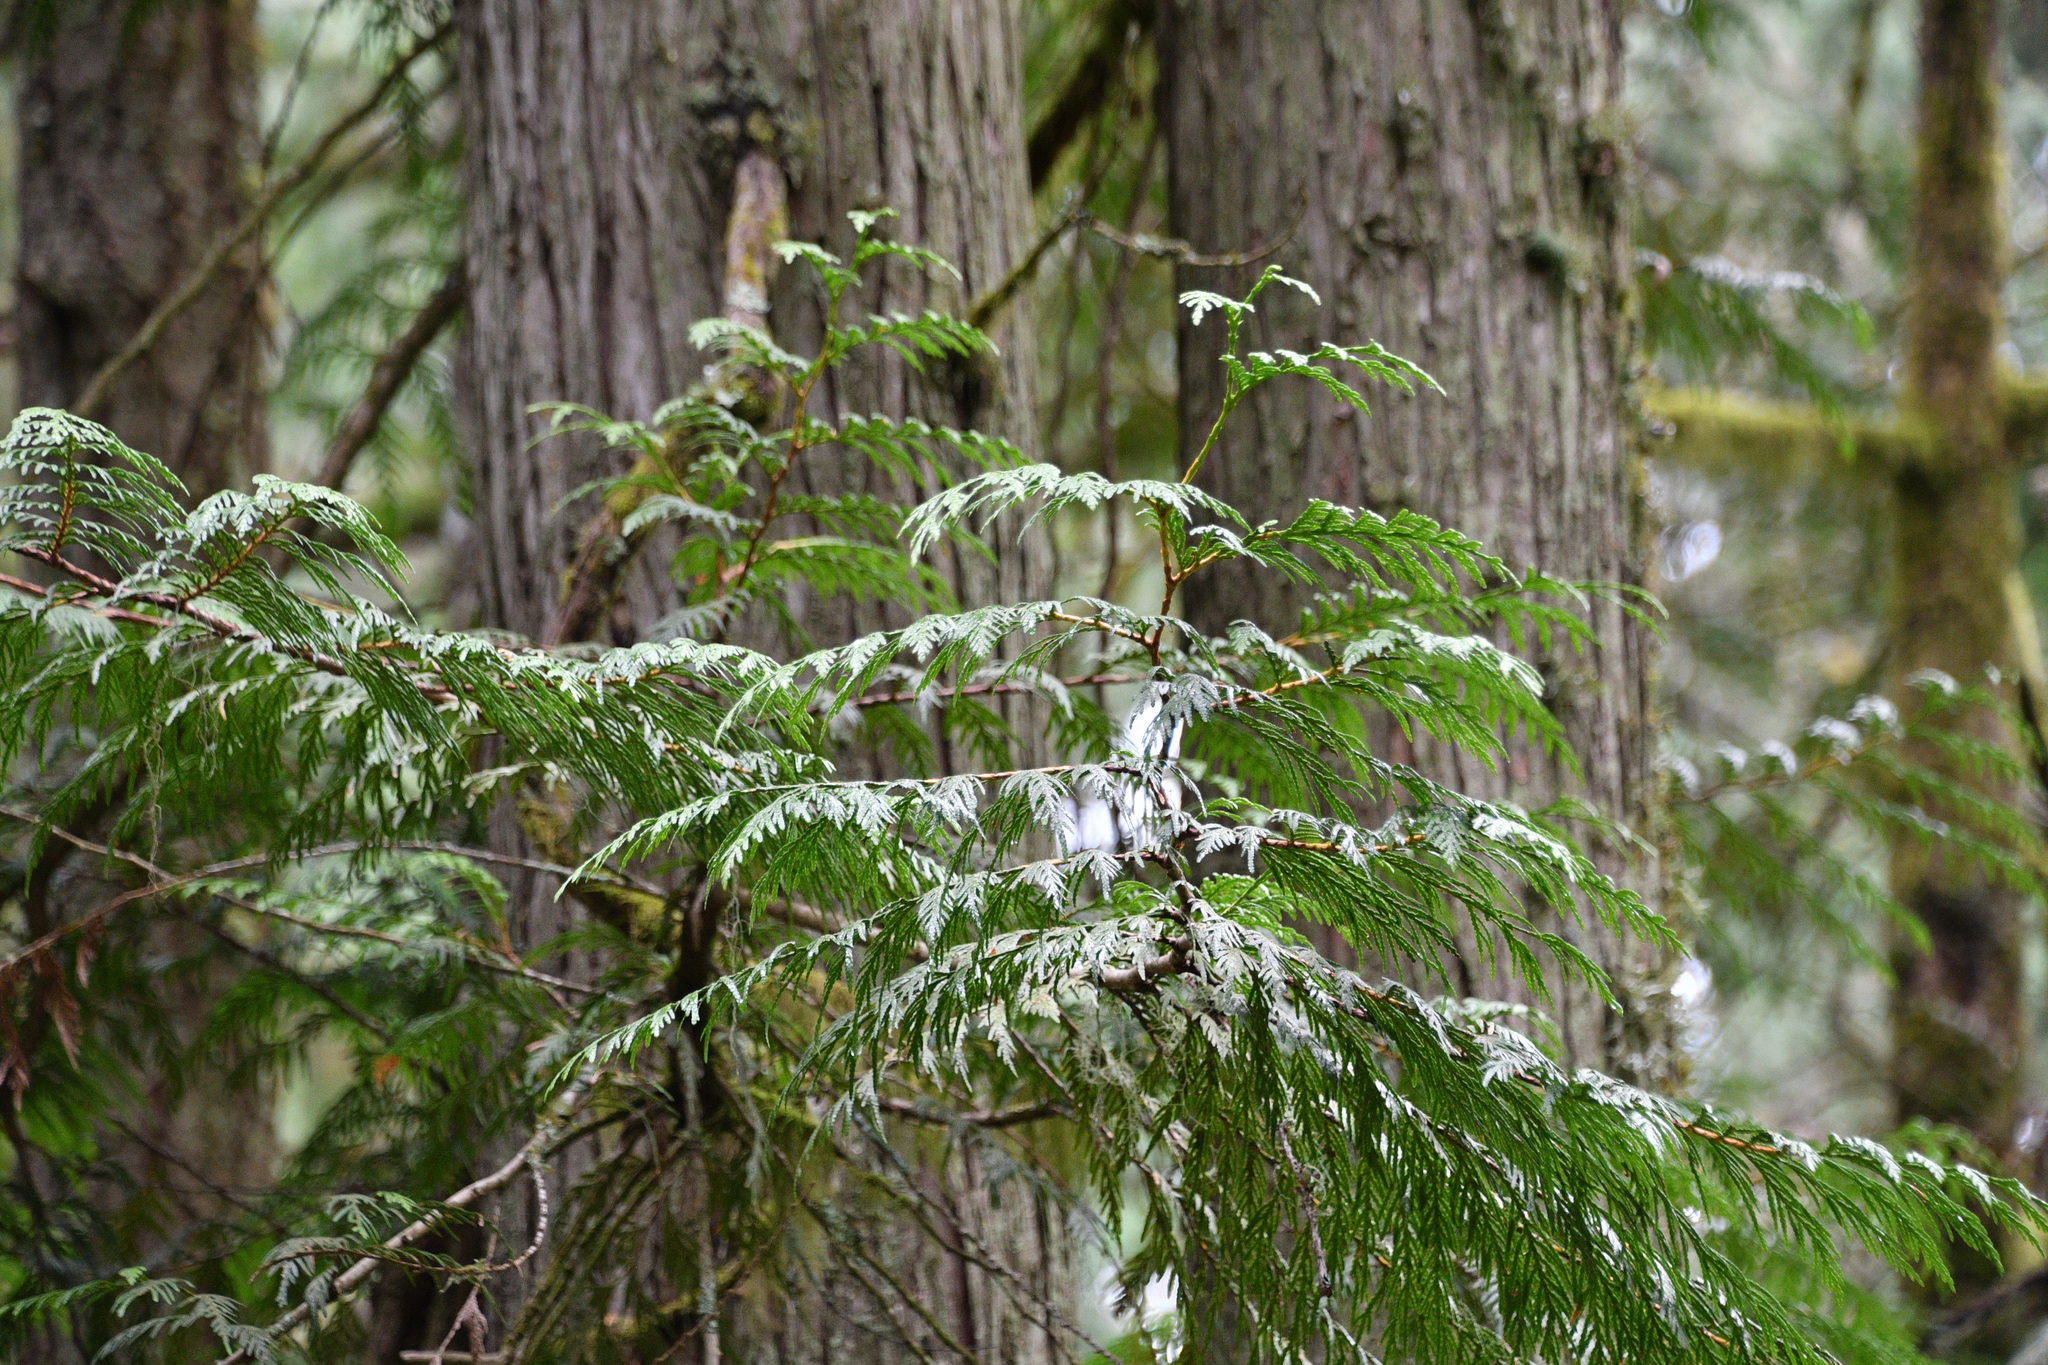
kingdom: Plantae
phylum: Tracheophyta
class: Pinopsida
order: Pinales
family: Cupressaceae
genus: Thuja
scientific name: Thuja plicata
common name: Western red-cedar
